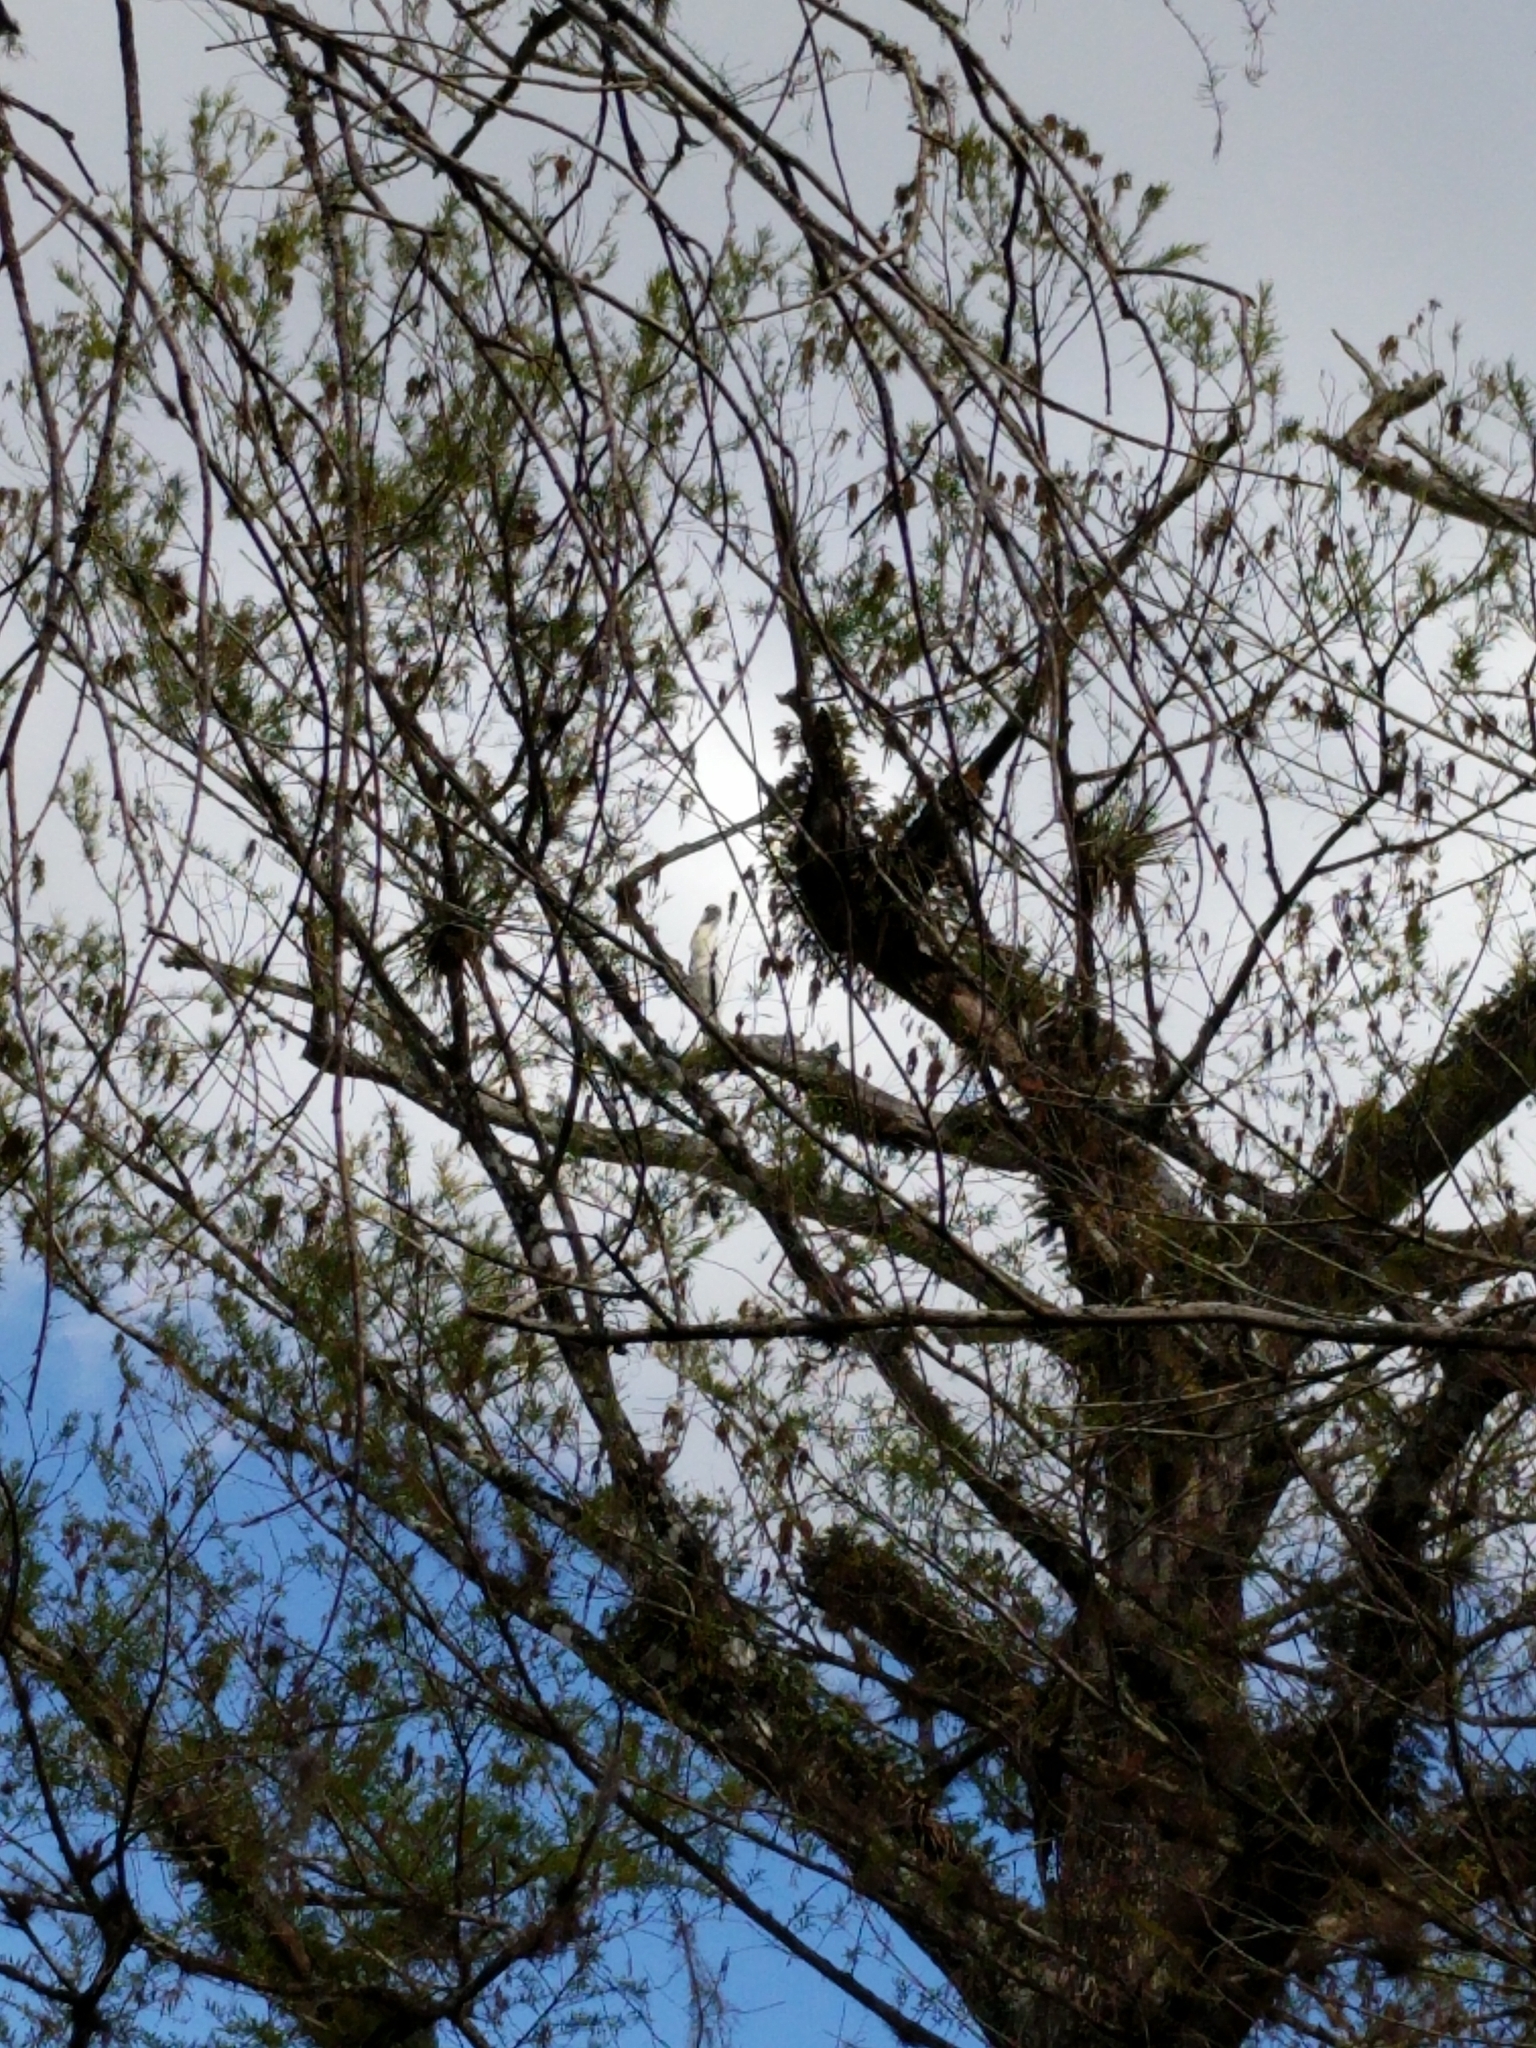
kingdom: Animalia
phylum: Chordata
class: Aves
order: Ciconiiformes
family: Ciconiidae
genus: Mycteria
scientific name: Mycteria americana
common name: Wood stork
